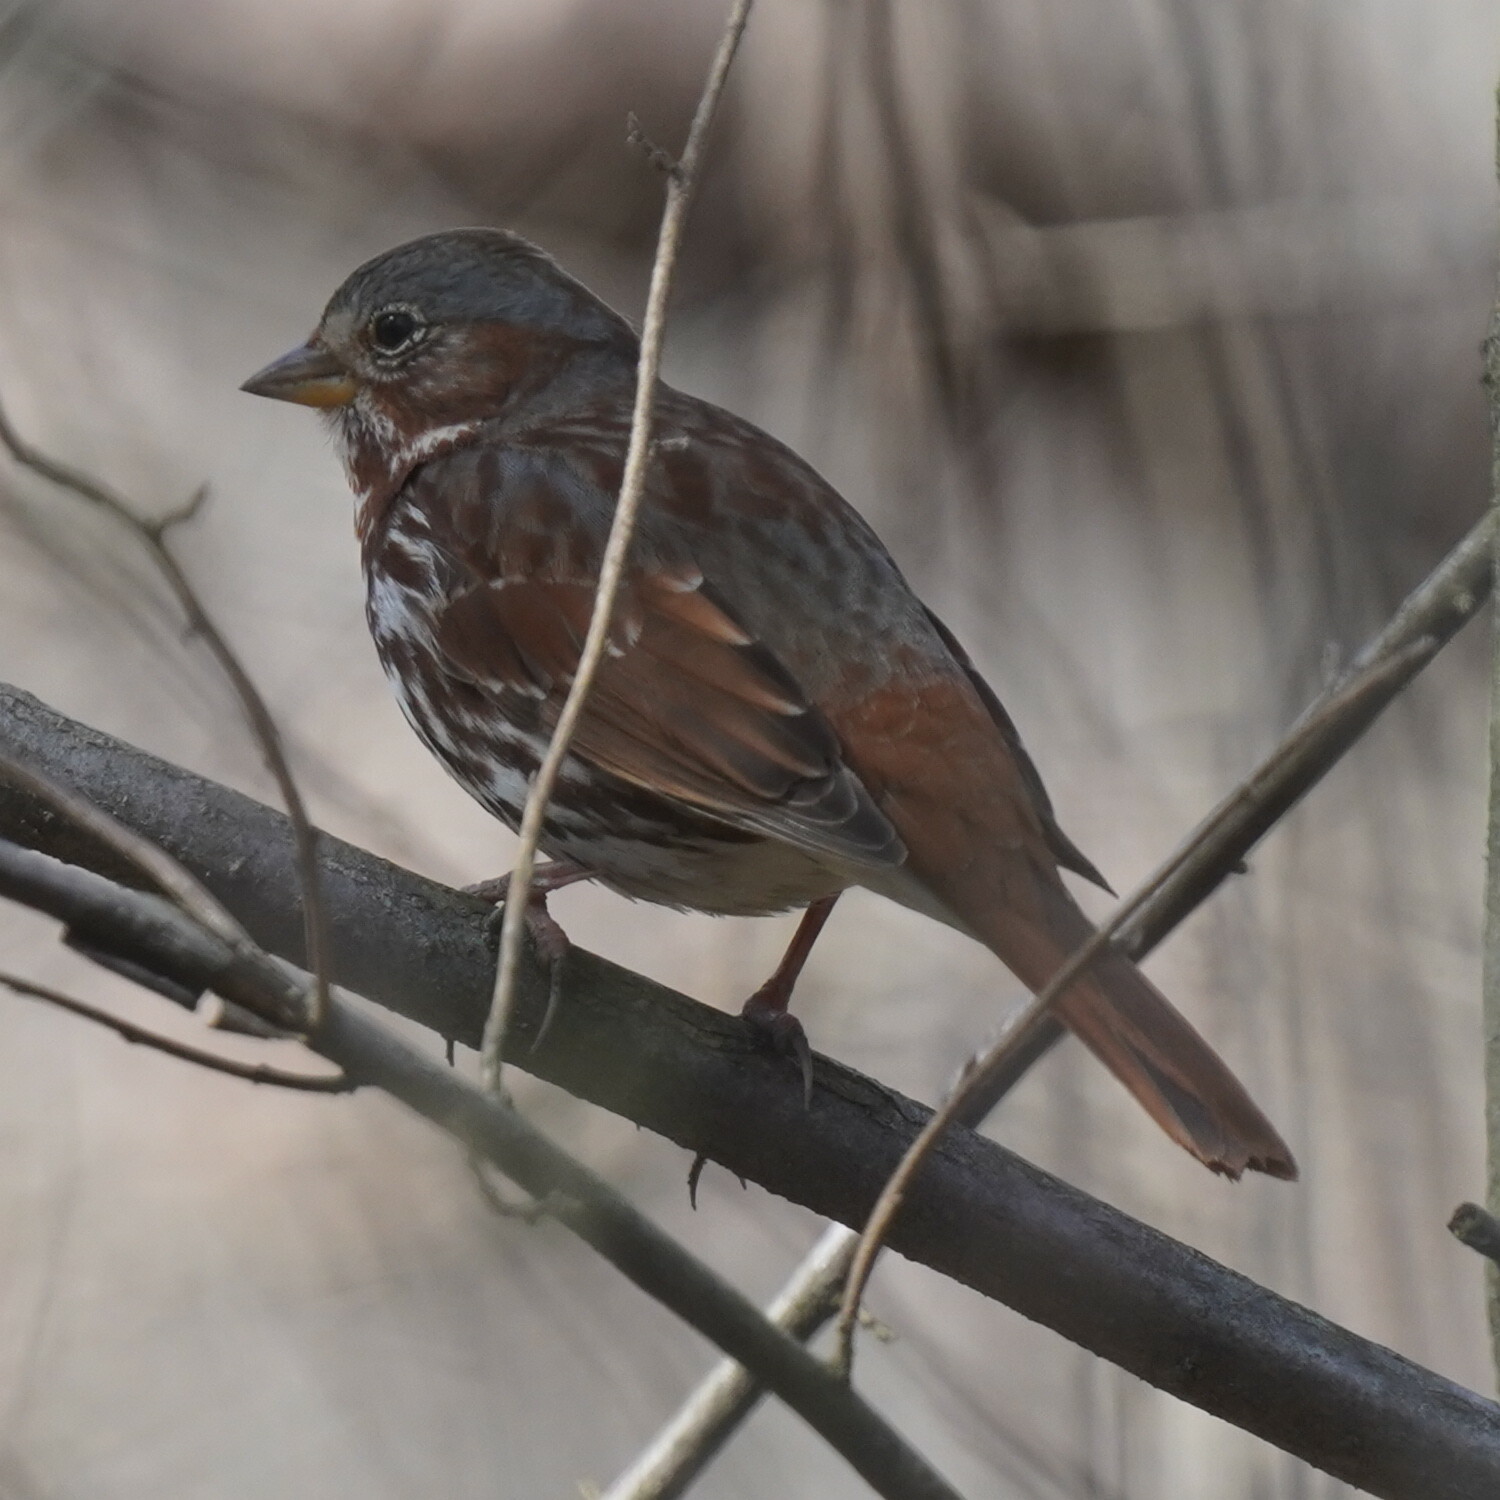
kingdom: Animalia
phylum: Chordata
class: Aves
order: Passeriformes
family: Passerellidae
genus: Passerella
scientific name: Passerella iliaca
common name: Fox sparrow
